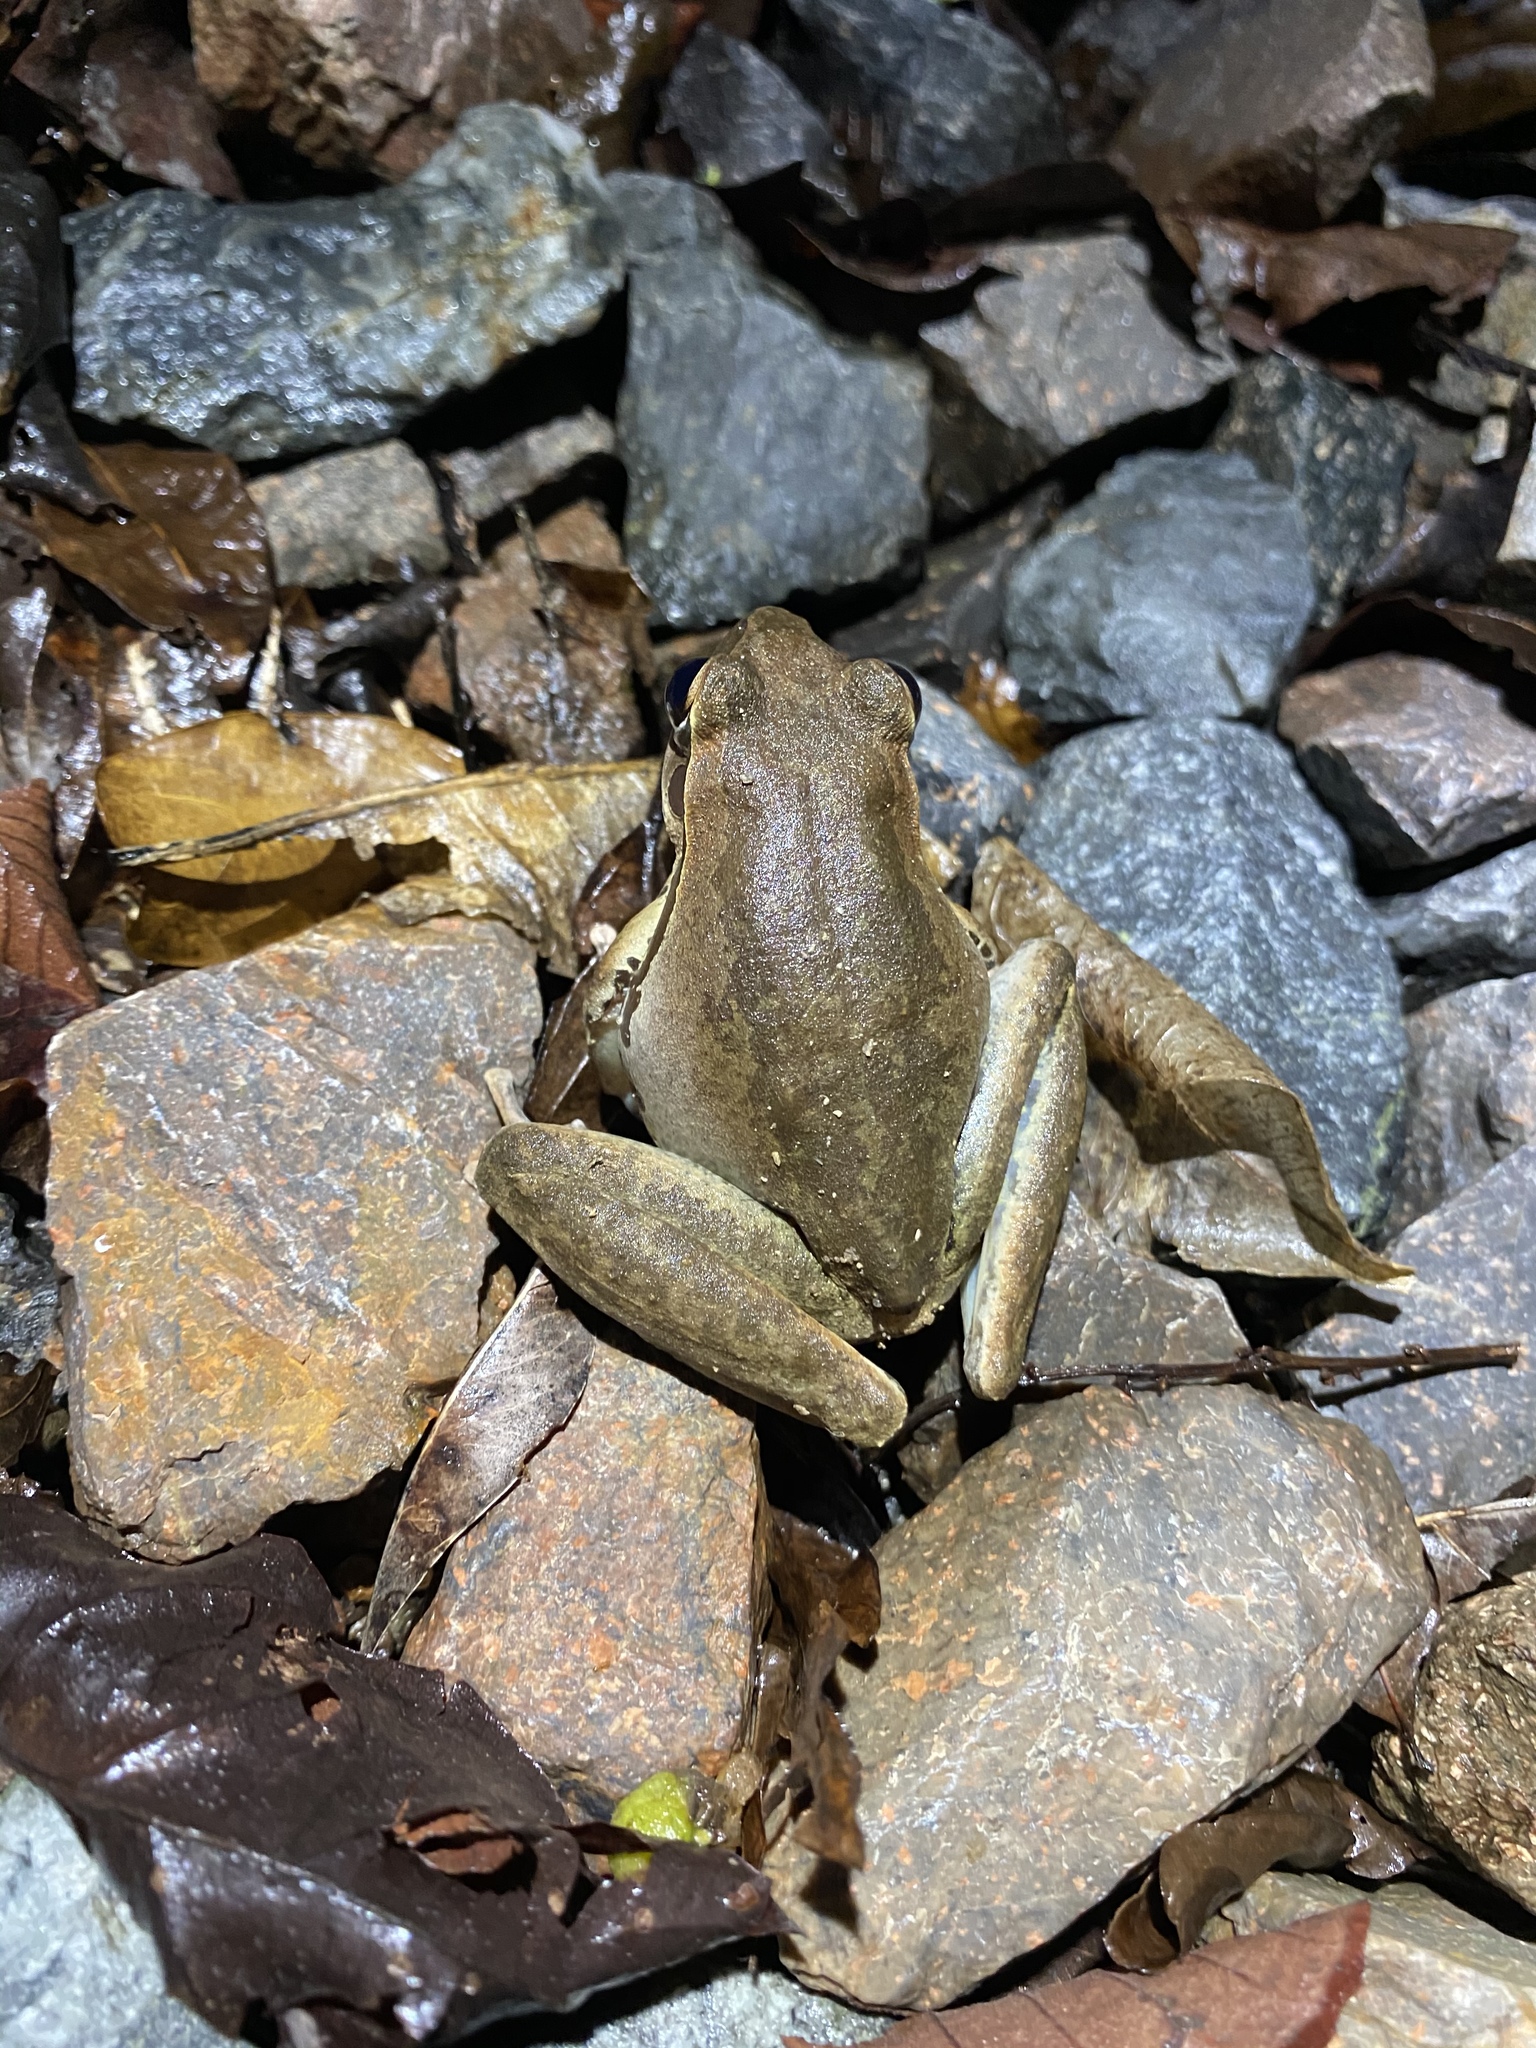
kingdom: Animalia
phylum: Chordata
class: Amphibia
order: Anura
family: Hylidae
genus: Ranoidea
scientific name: Ranoidea
